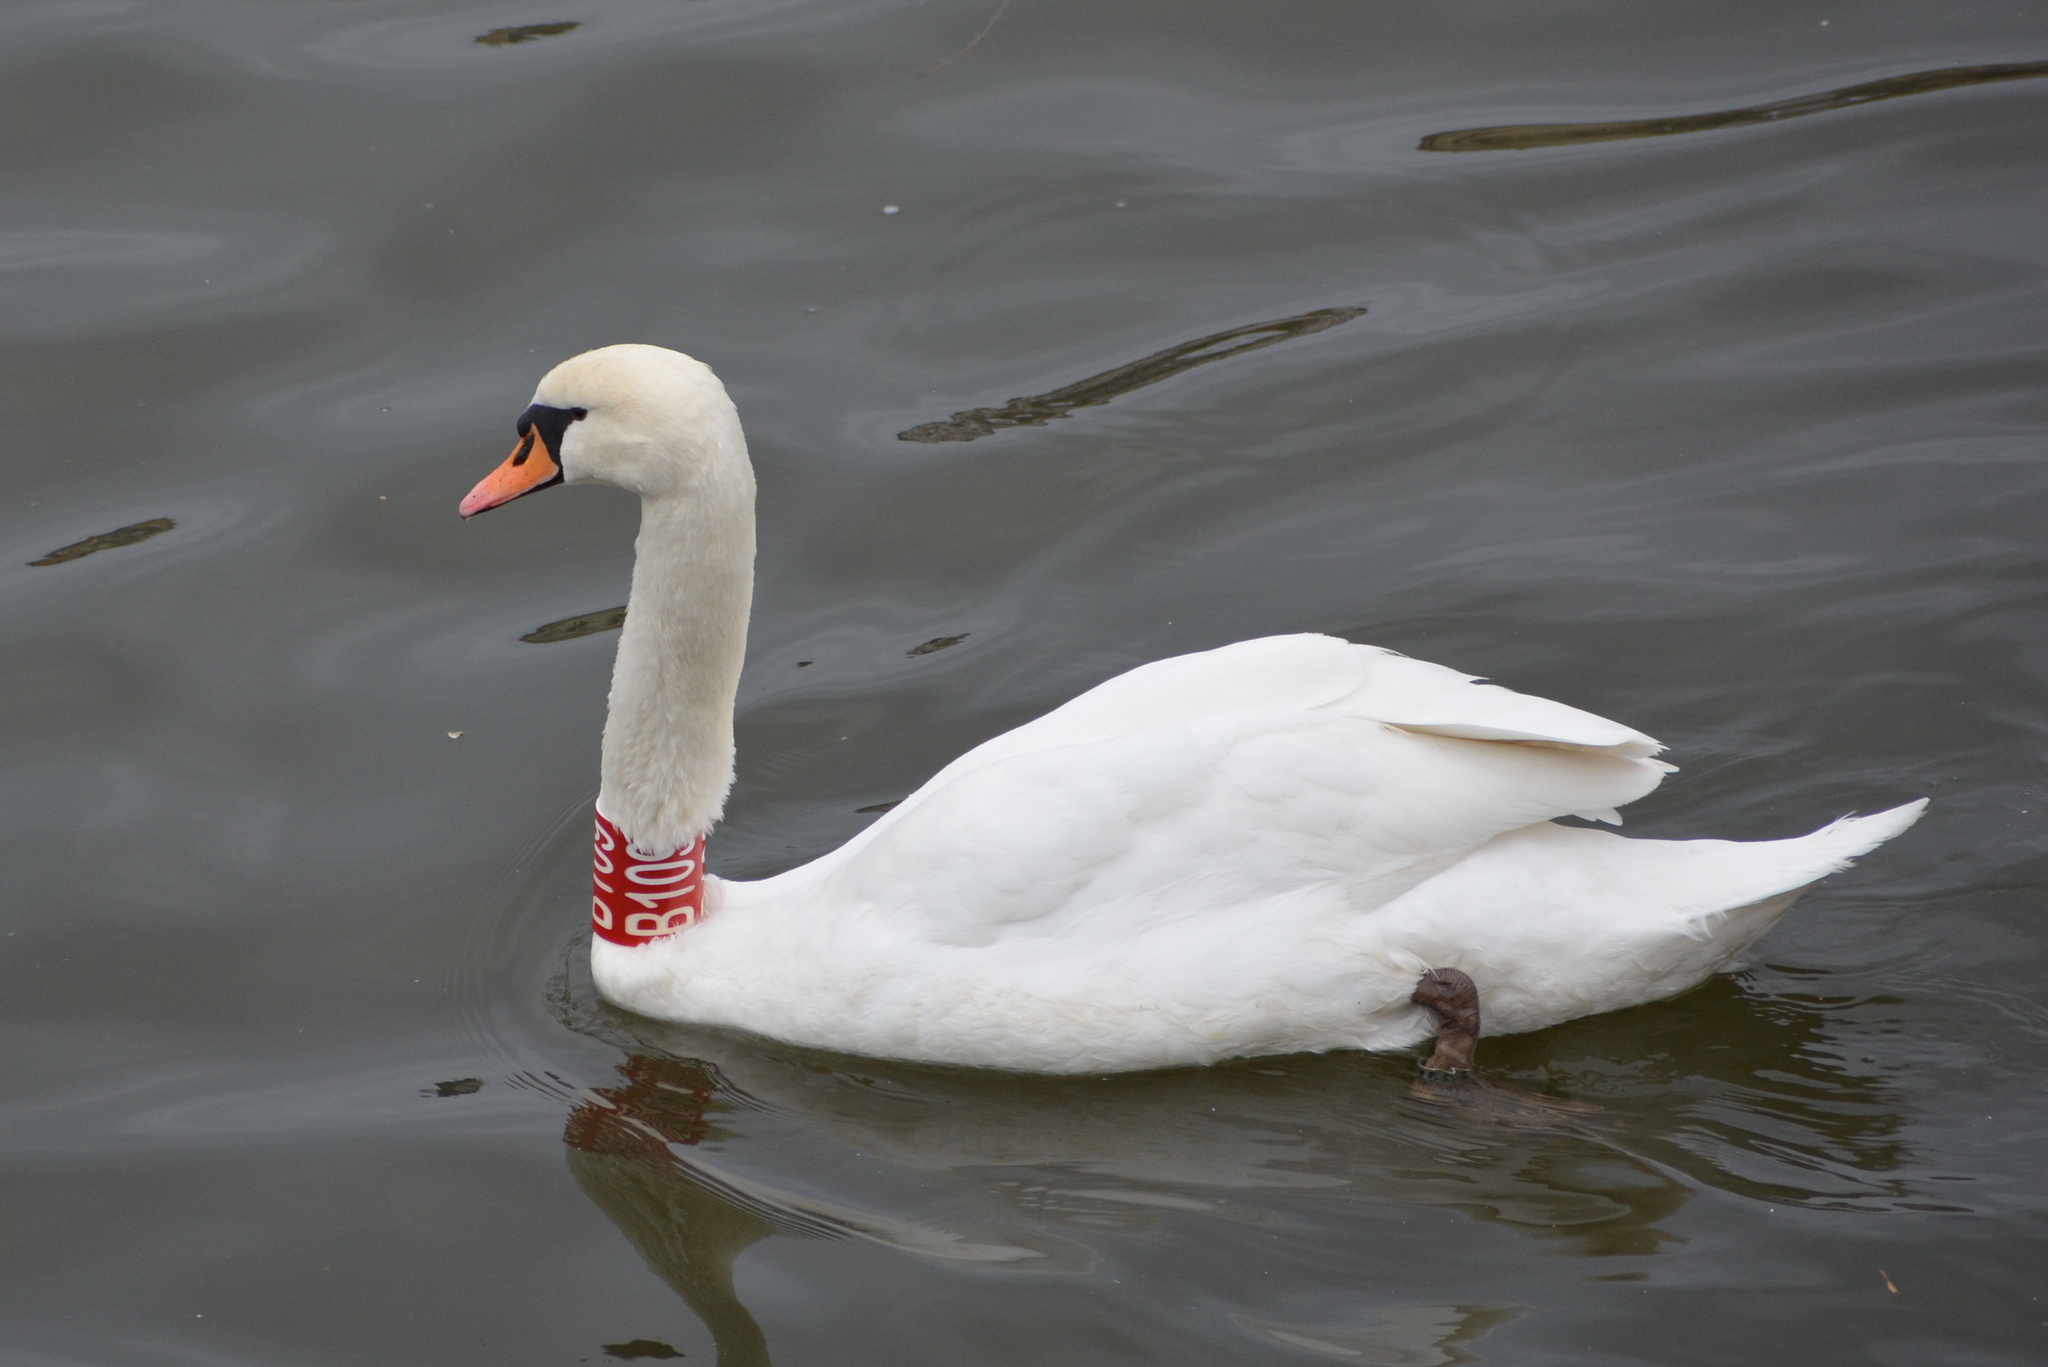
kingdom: Animalia
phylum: Chordata
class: Aves
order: Anseriformes
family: Anatidae
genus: Cygnus
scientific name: Cygnus olor
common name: Mute swan
